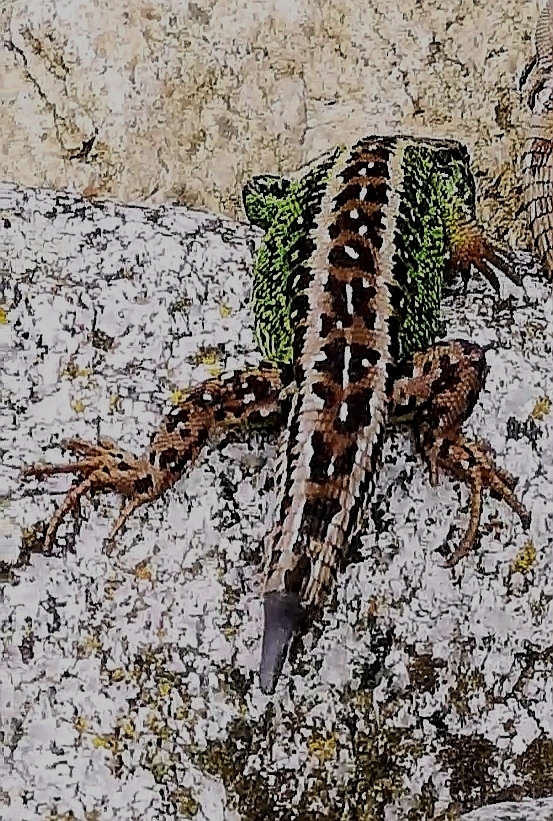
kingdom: Animalia
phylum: Chordata
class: Squamata
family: Lacertidae
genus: Lacerta
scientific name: Lacerta agilis
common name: Sand lizard
